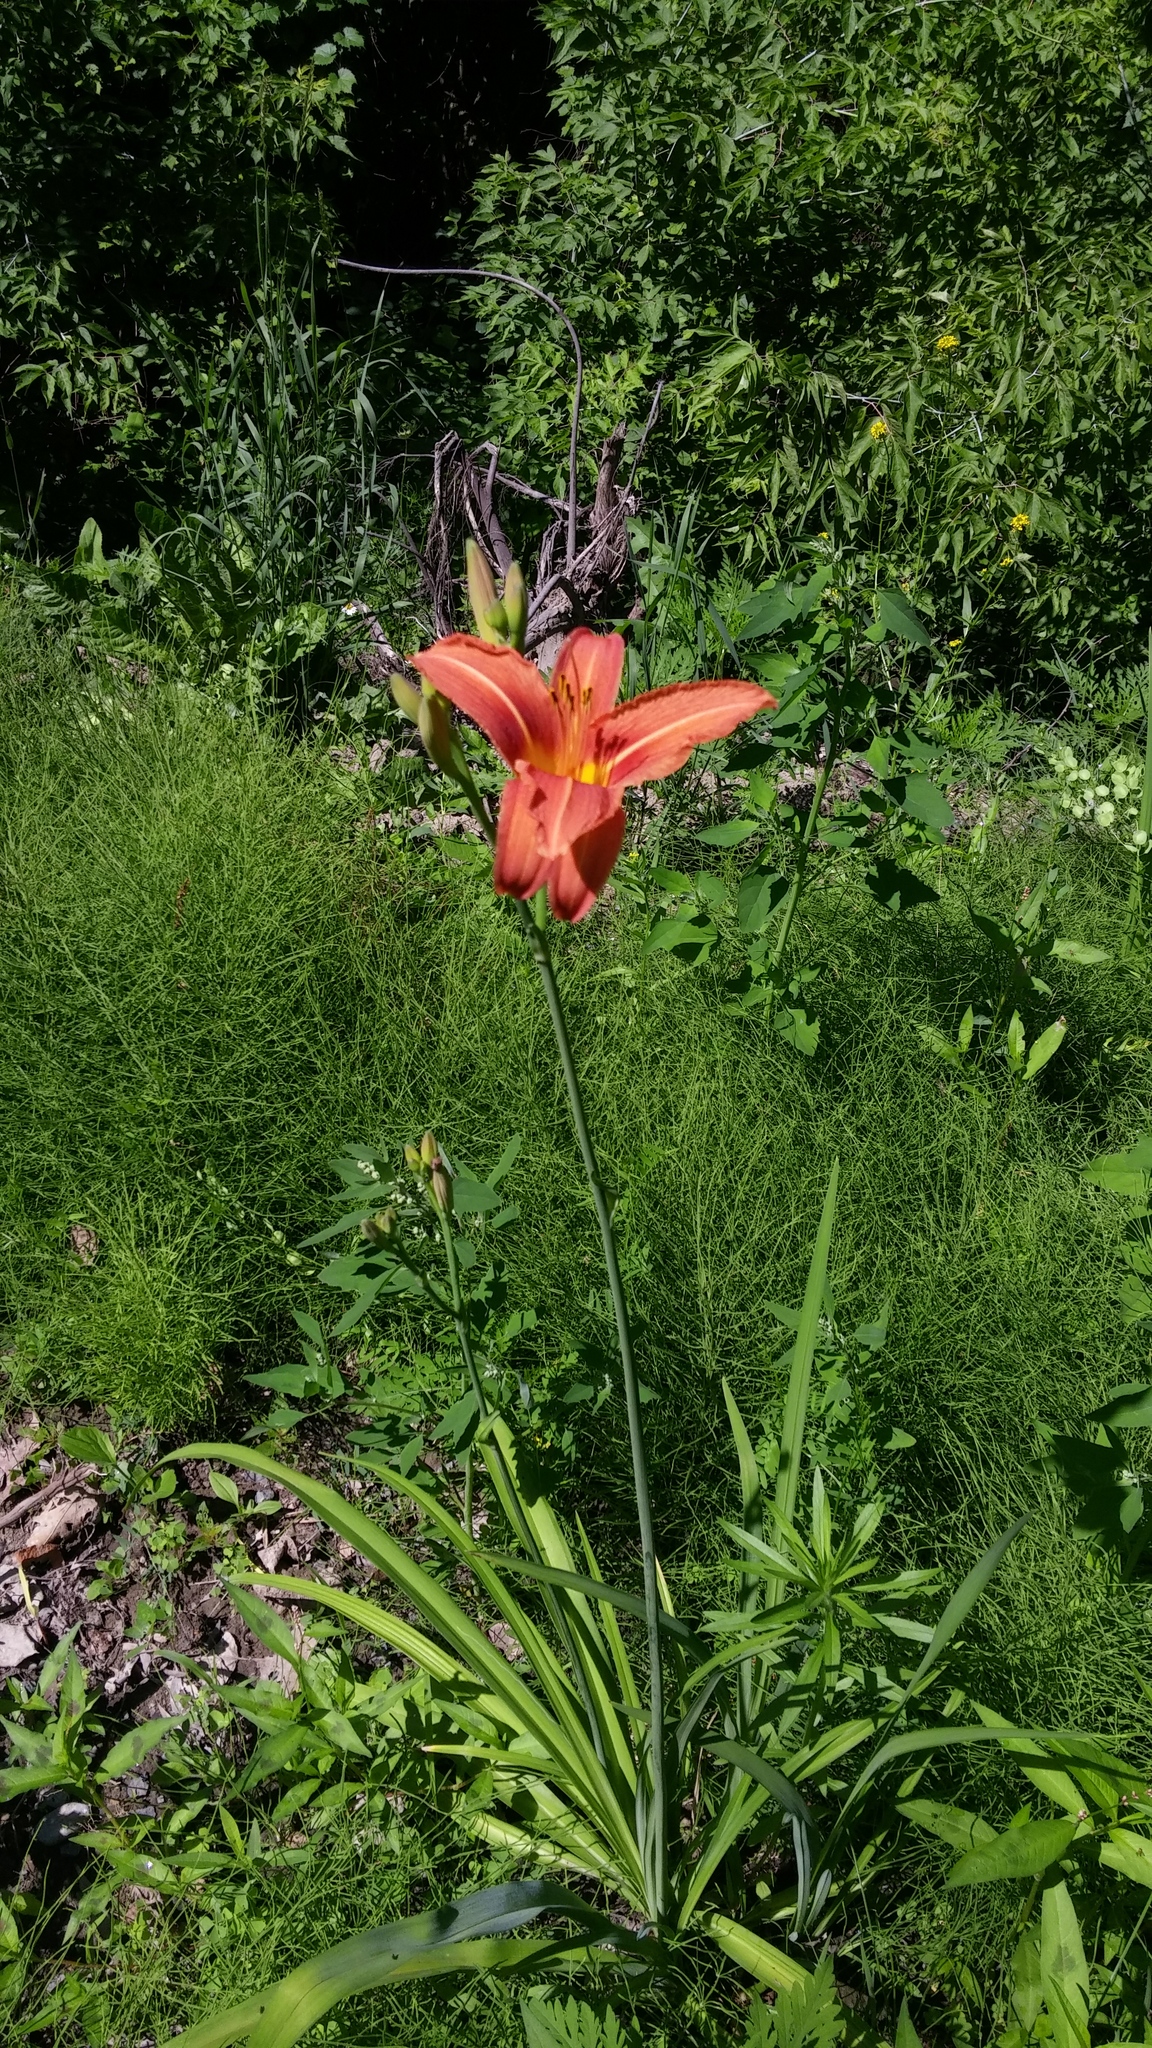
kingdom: Plantae
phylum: Tracheophyta
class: Liliopsida
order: Asparagales
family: Asphodelaceae
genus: Hemerocallis
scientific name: Hemerocallis fulva
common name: Orange day-lily
